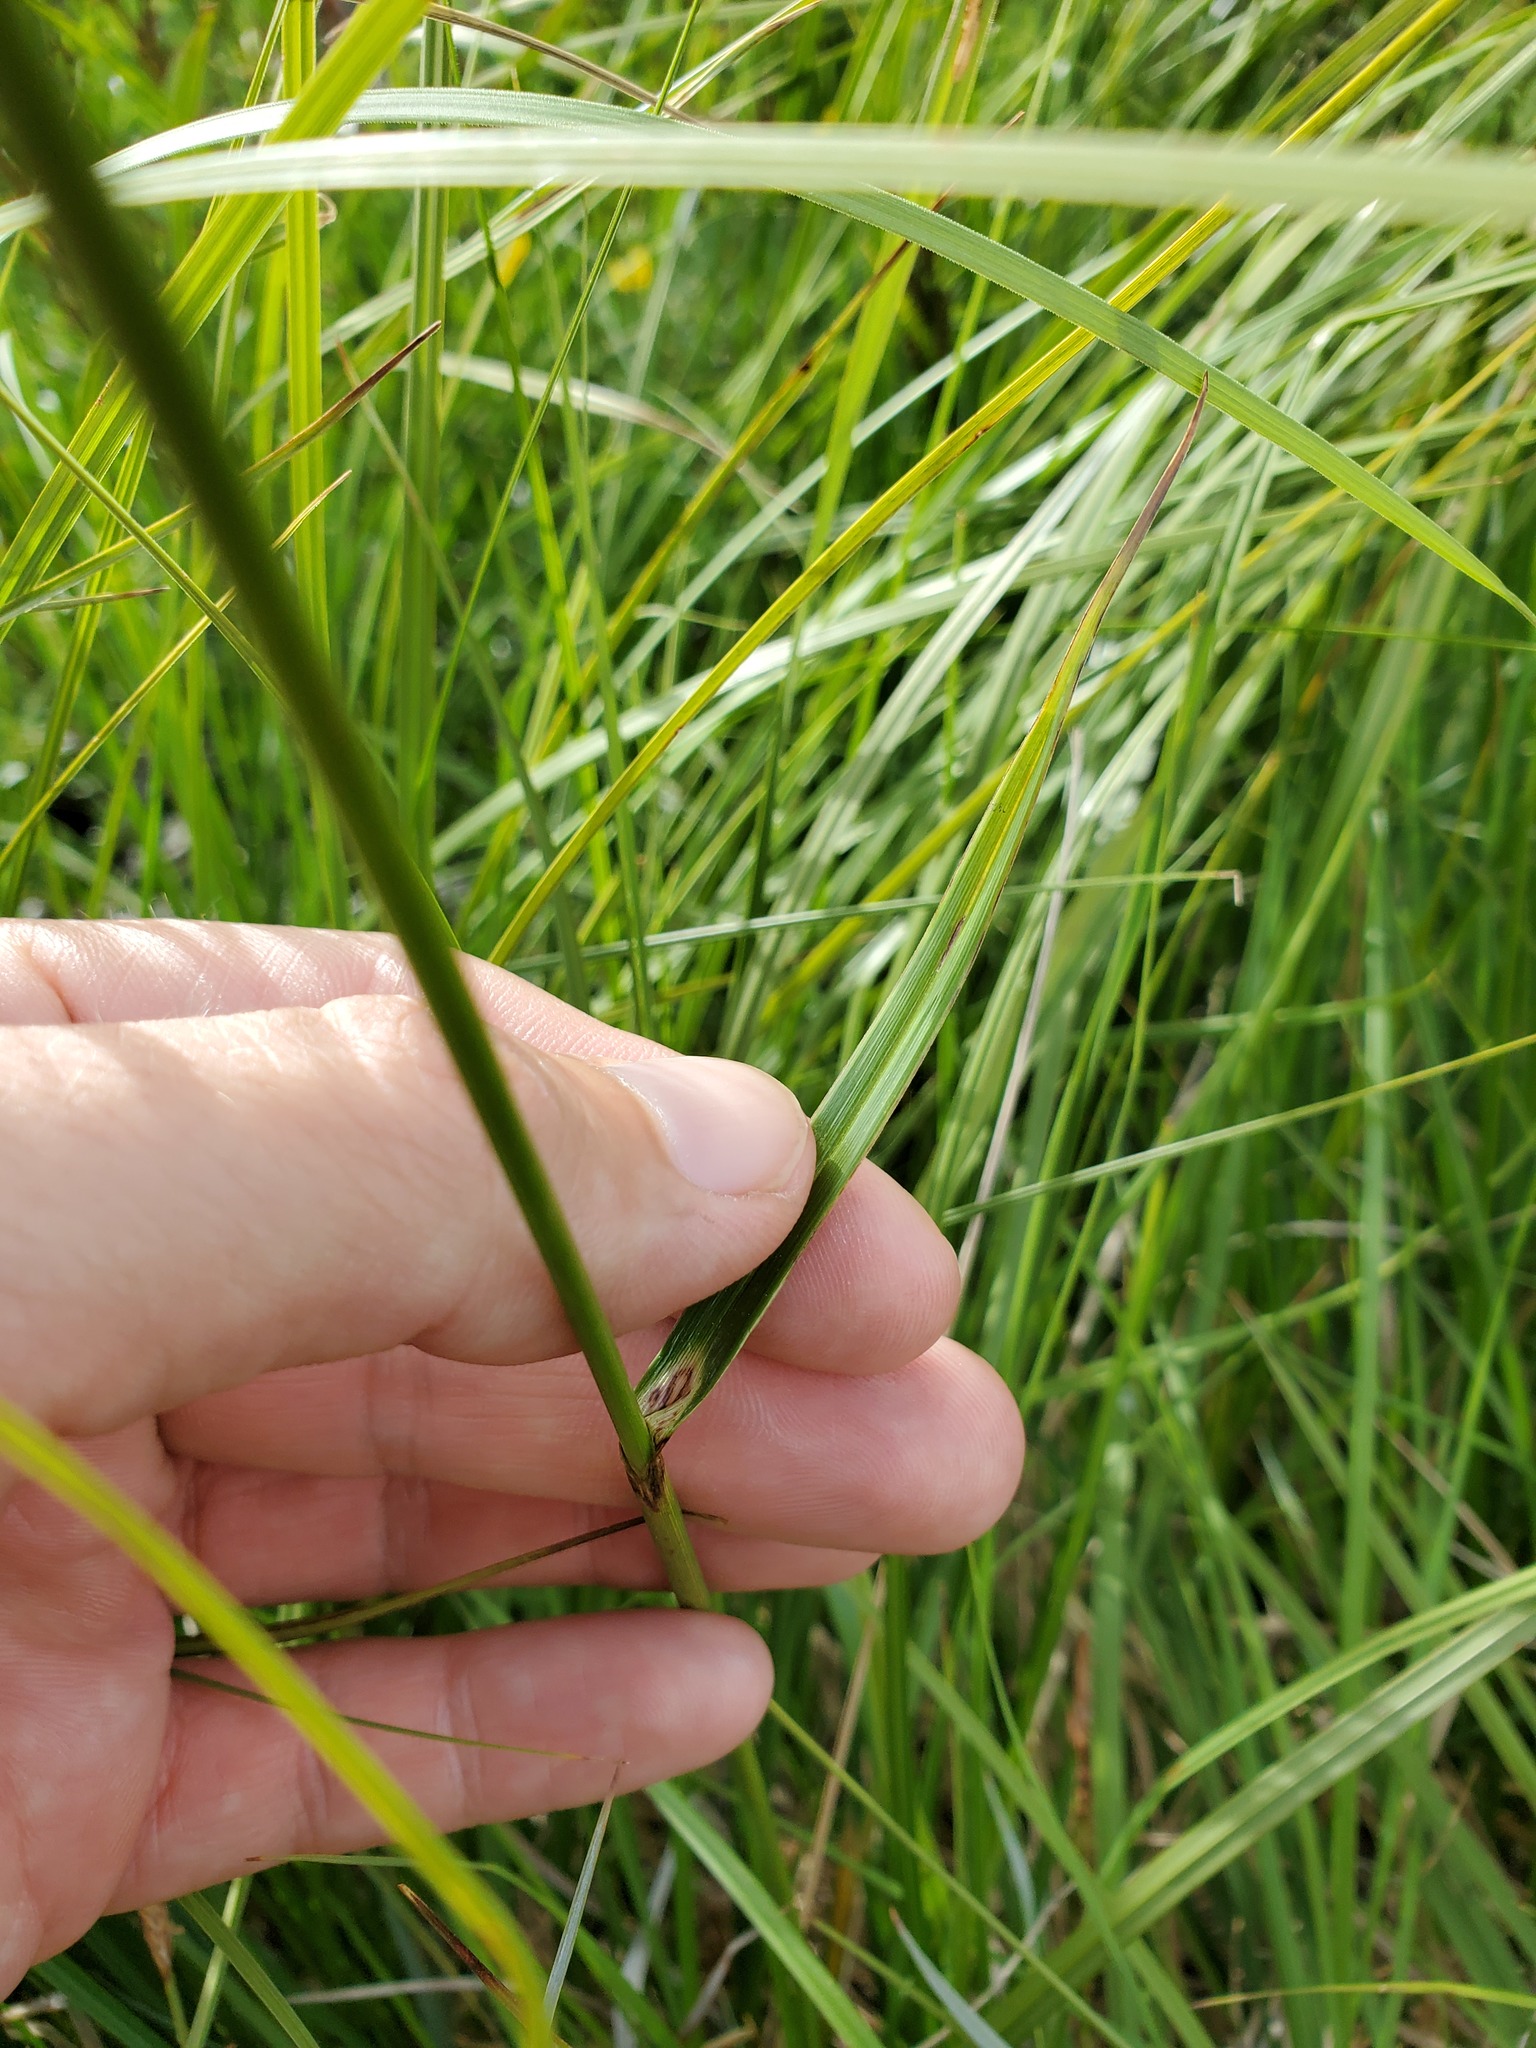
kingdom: Plantae
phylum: Tracheophyta
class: Liliopsida
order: Poales
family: Cyperaceae
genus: Eriophorum
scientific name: Eriophorum angustifolium
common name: Common cottongrass
